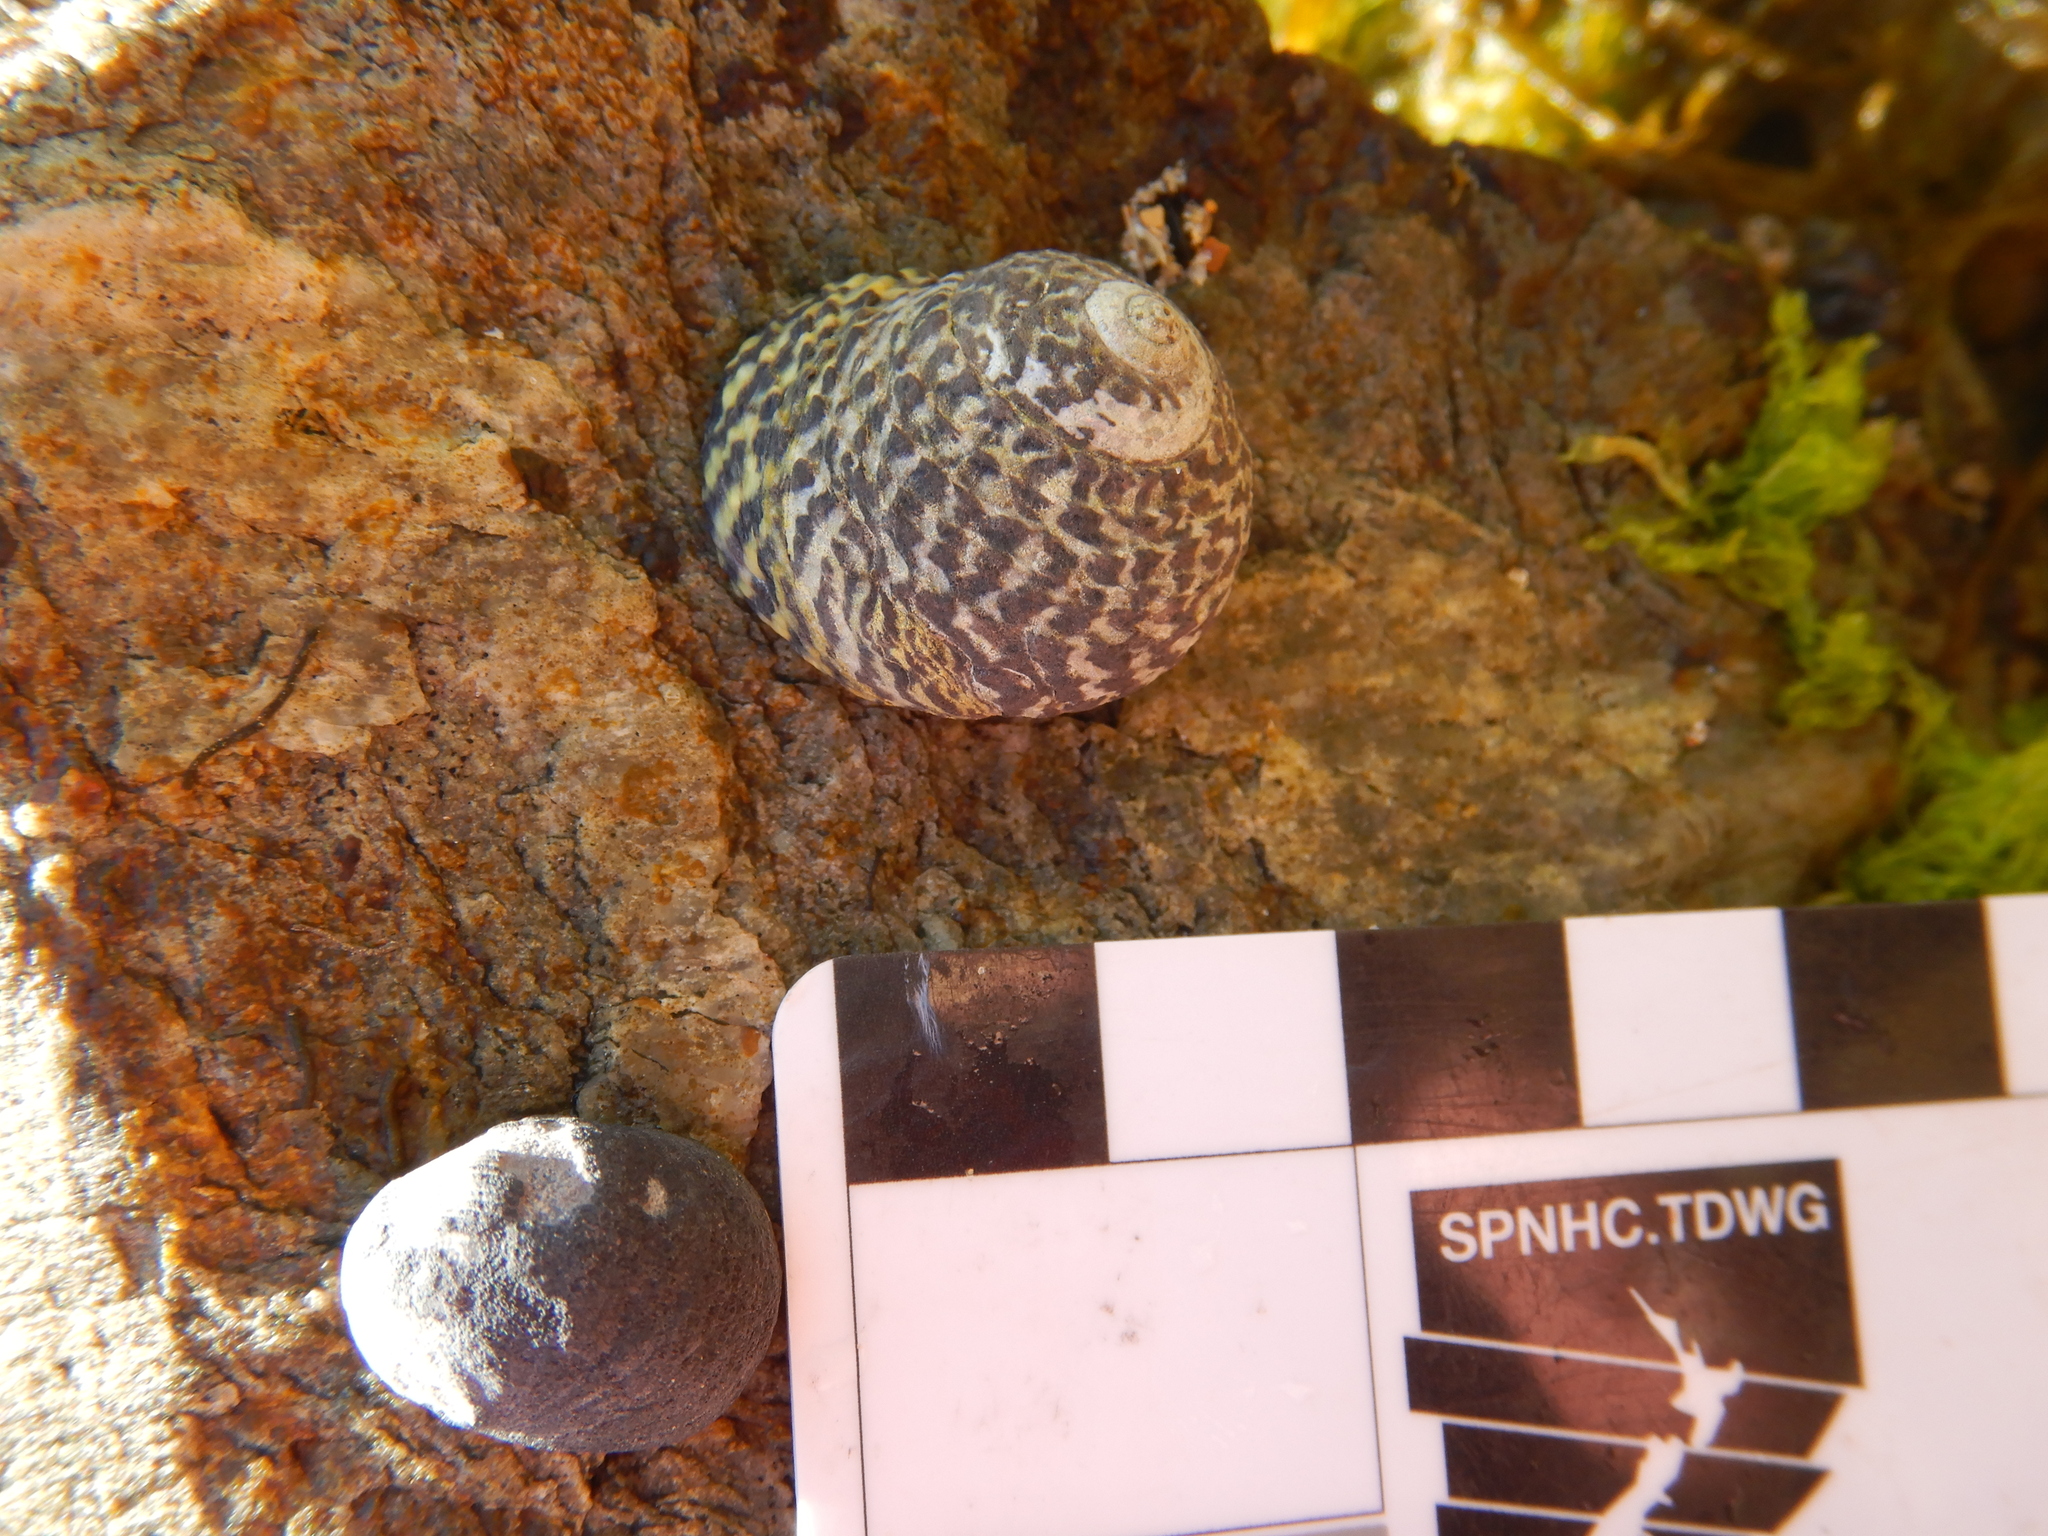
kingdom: Animalia
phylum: Mollusca
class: Gastropoda
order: Trochida
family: Trochidae
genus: Diloma
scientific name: Diloma concameratum
